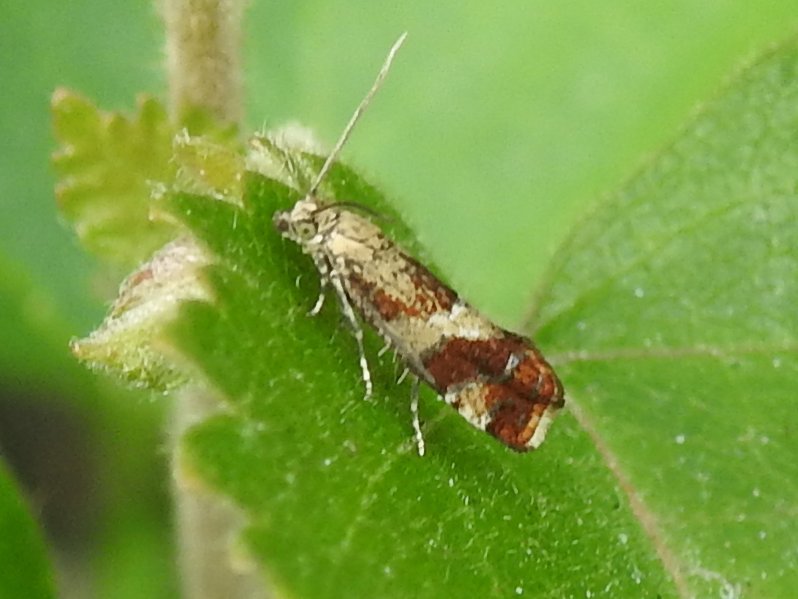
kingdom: Animalia
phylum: Arthropoda
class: Insecta
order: Lepidoptera
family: Tortricidae
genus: Epinotia
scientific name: Epinotia cruciana
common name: Willow tortrix
